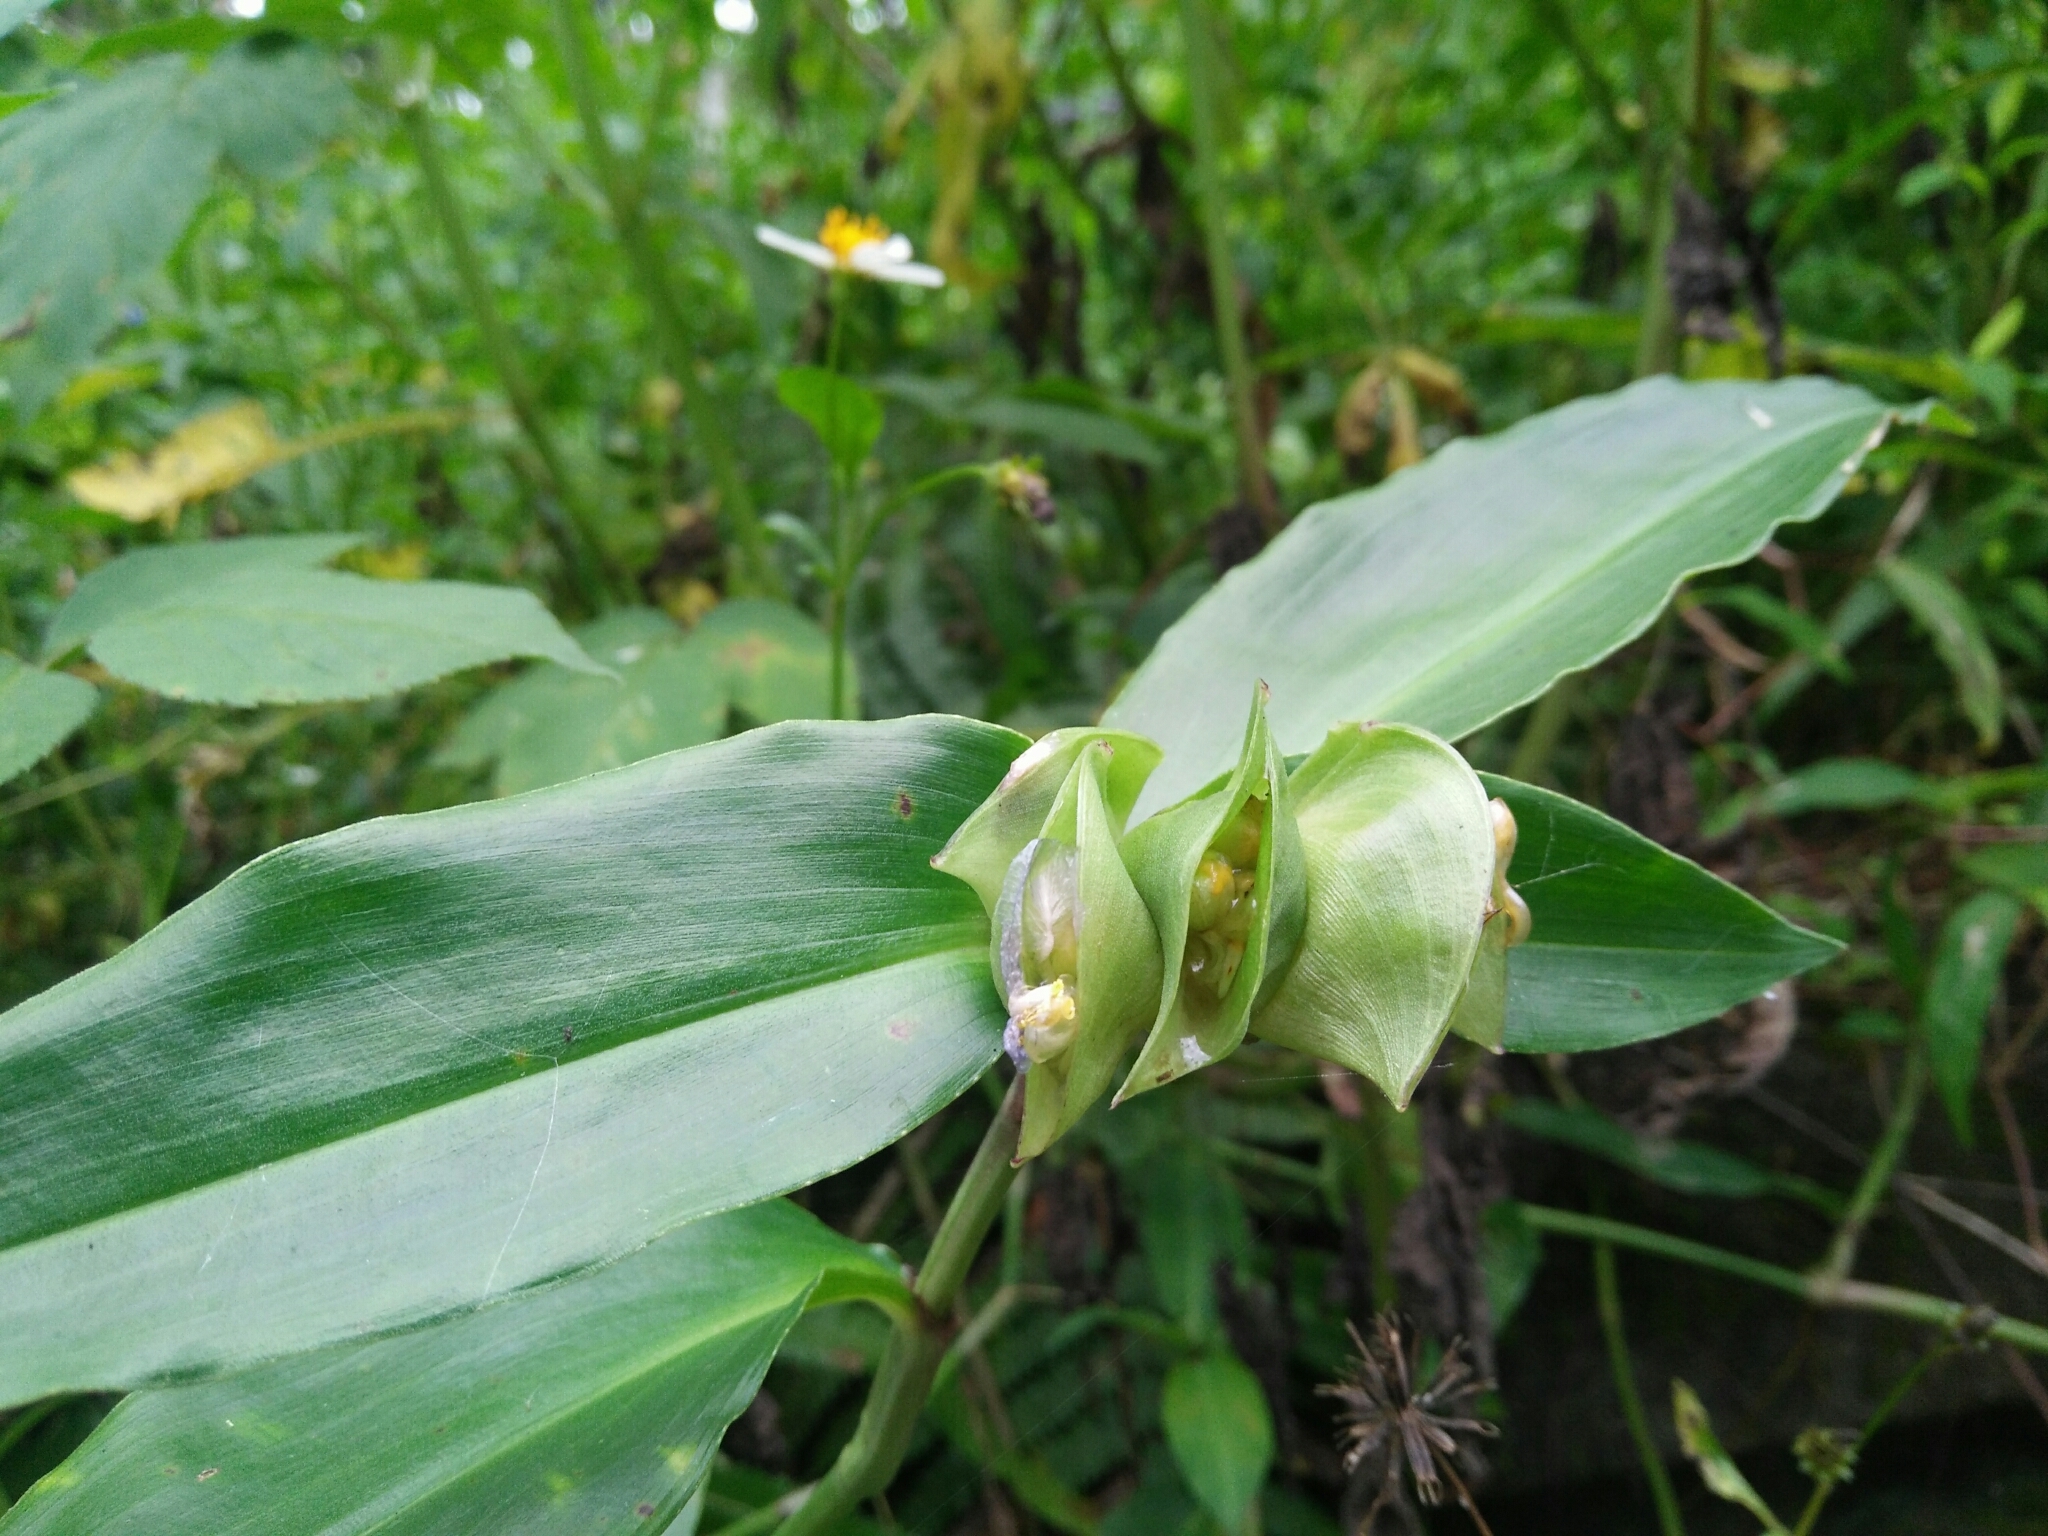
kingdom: Plantae
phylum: Tracheophyta
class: Liliopsida
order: Commelinales
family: Commelinaceae
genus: Commelina
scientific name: Commelina paludosa
